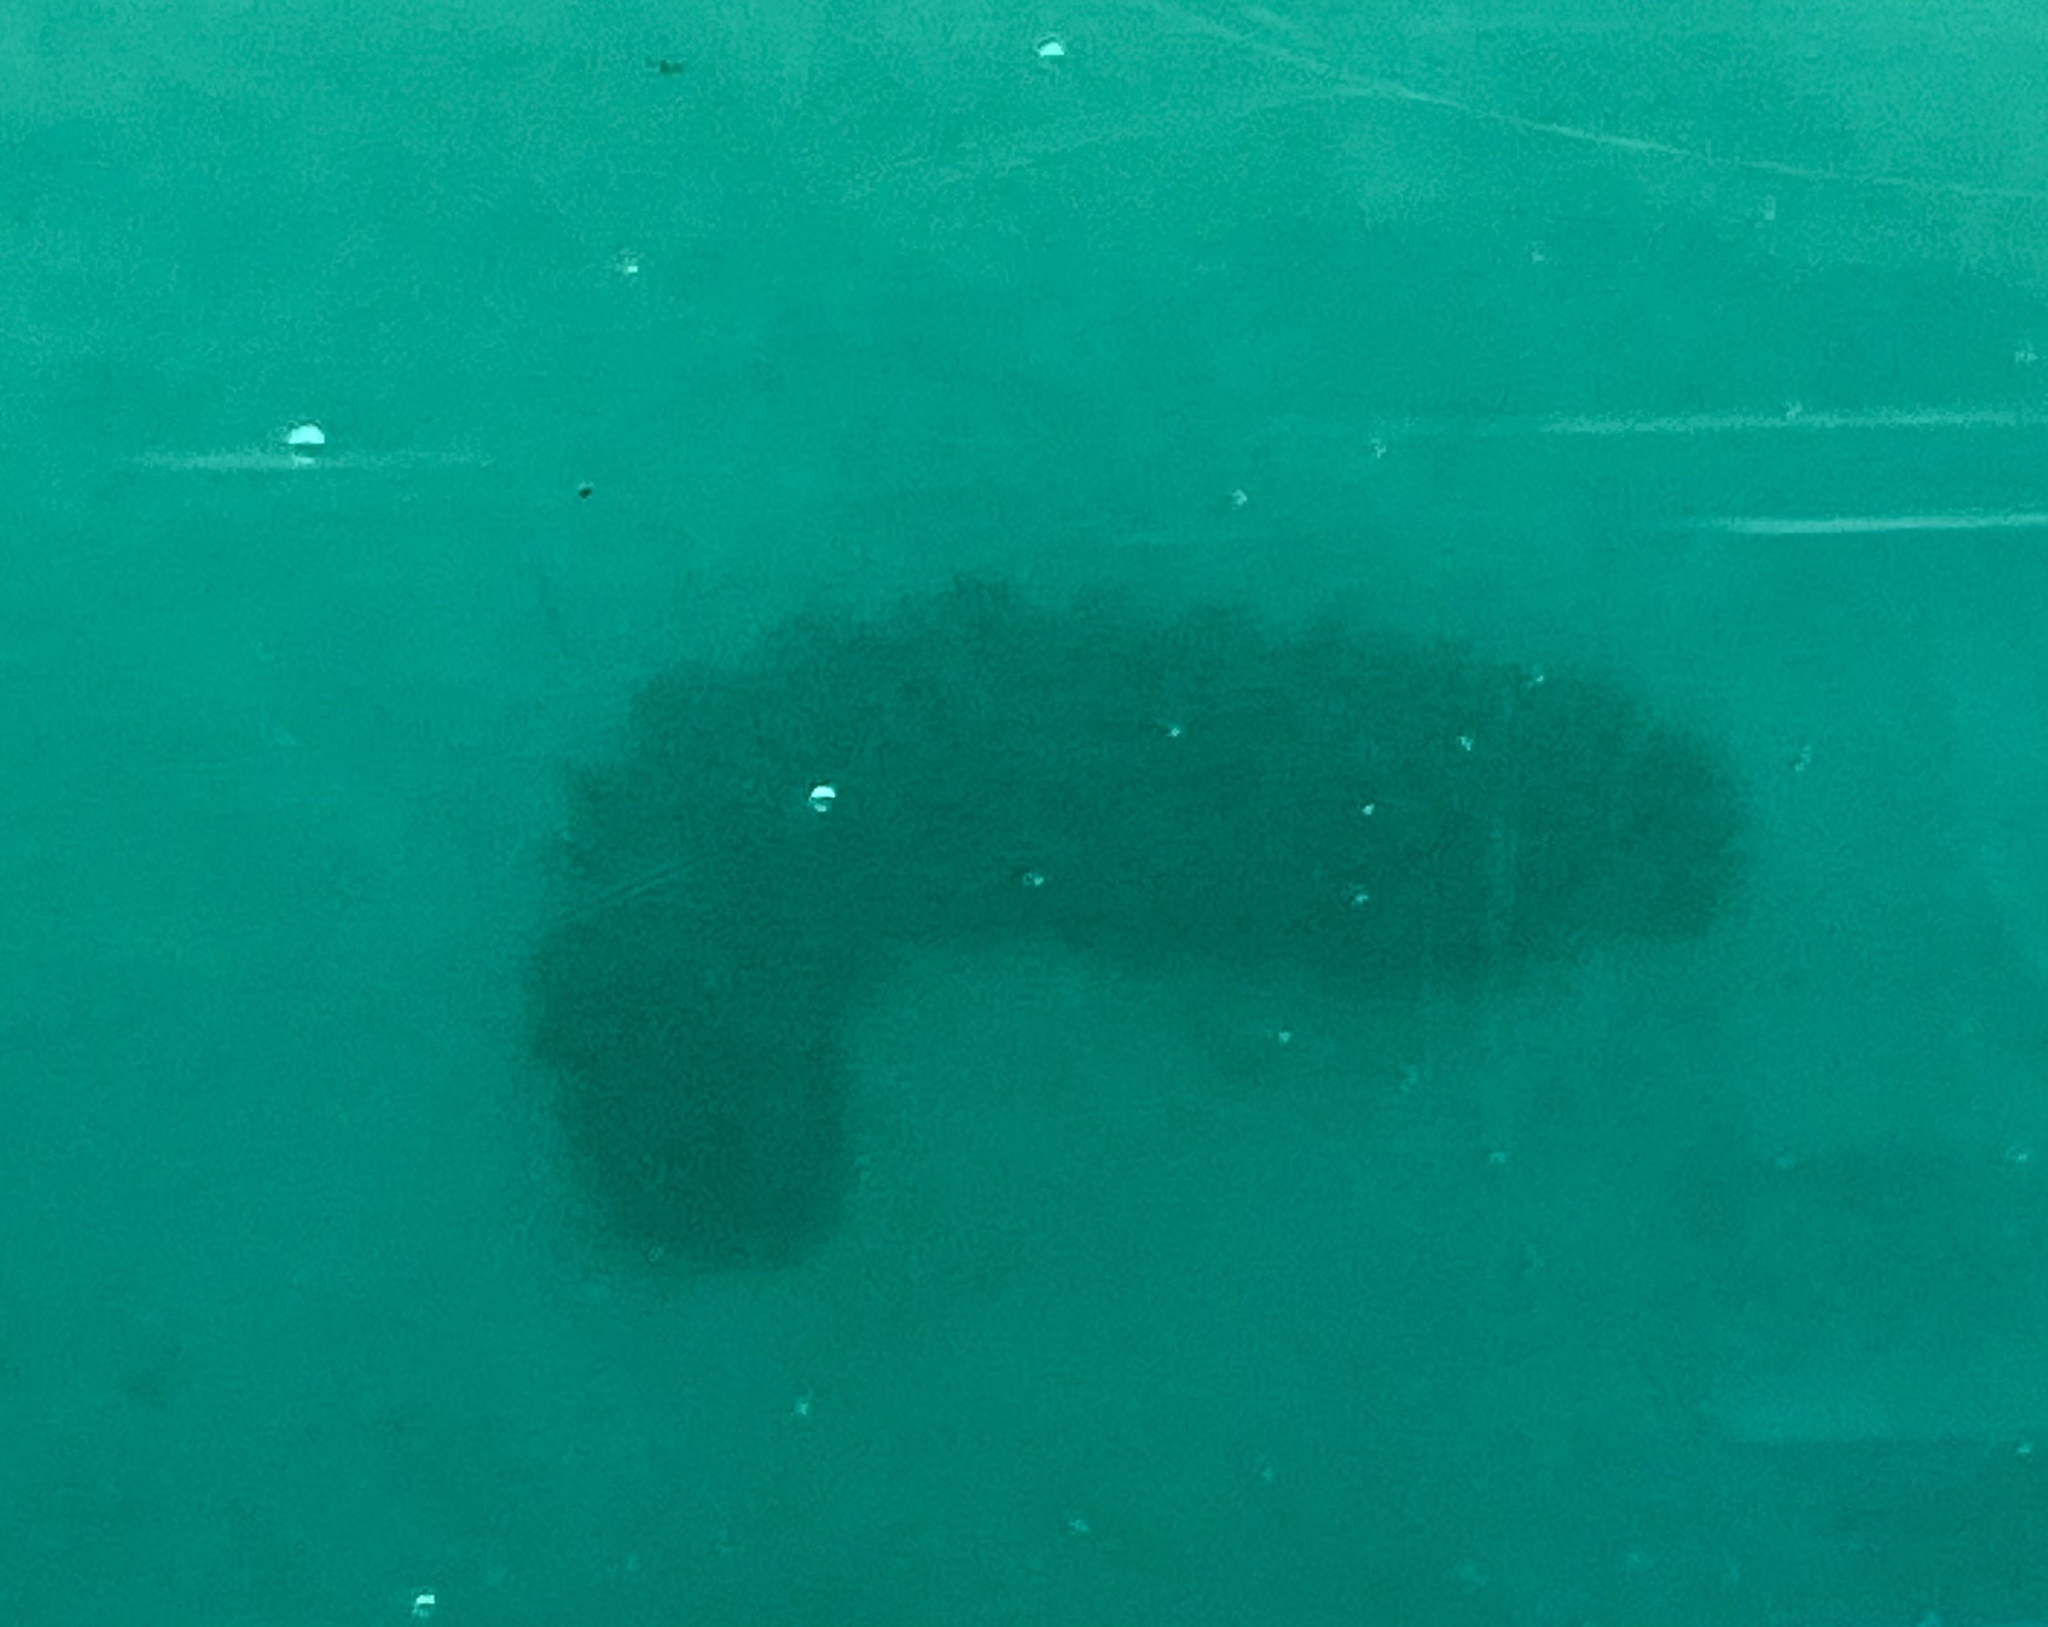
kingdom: Animalia
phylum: Echinodermata
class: Holothuroidea
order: Synallactida
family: Stichopodidae
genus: Thelenota
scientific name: Thelenota ananas
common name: Prickly redfish
